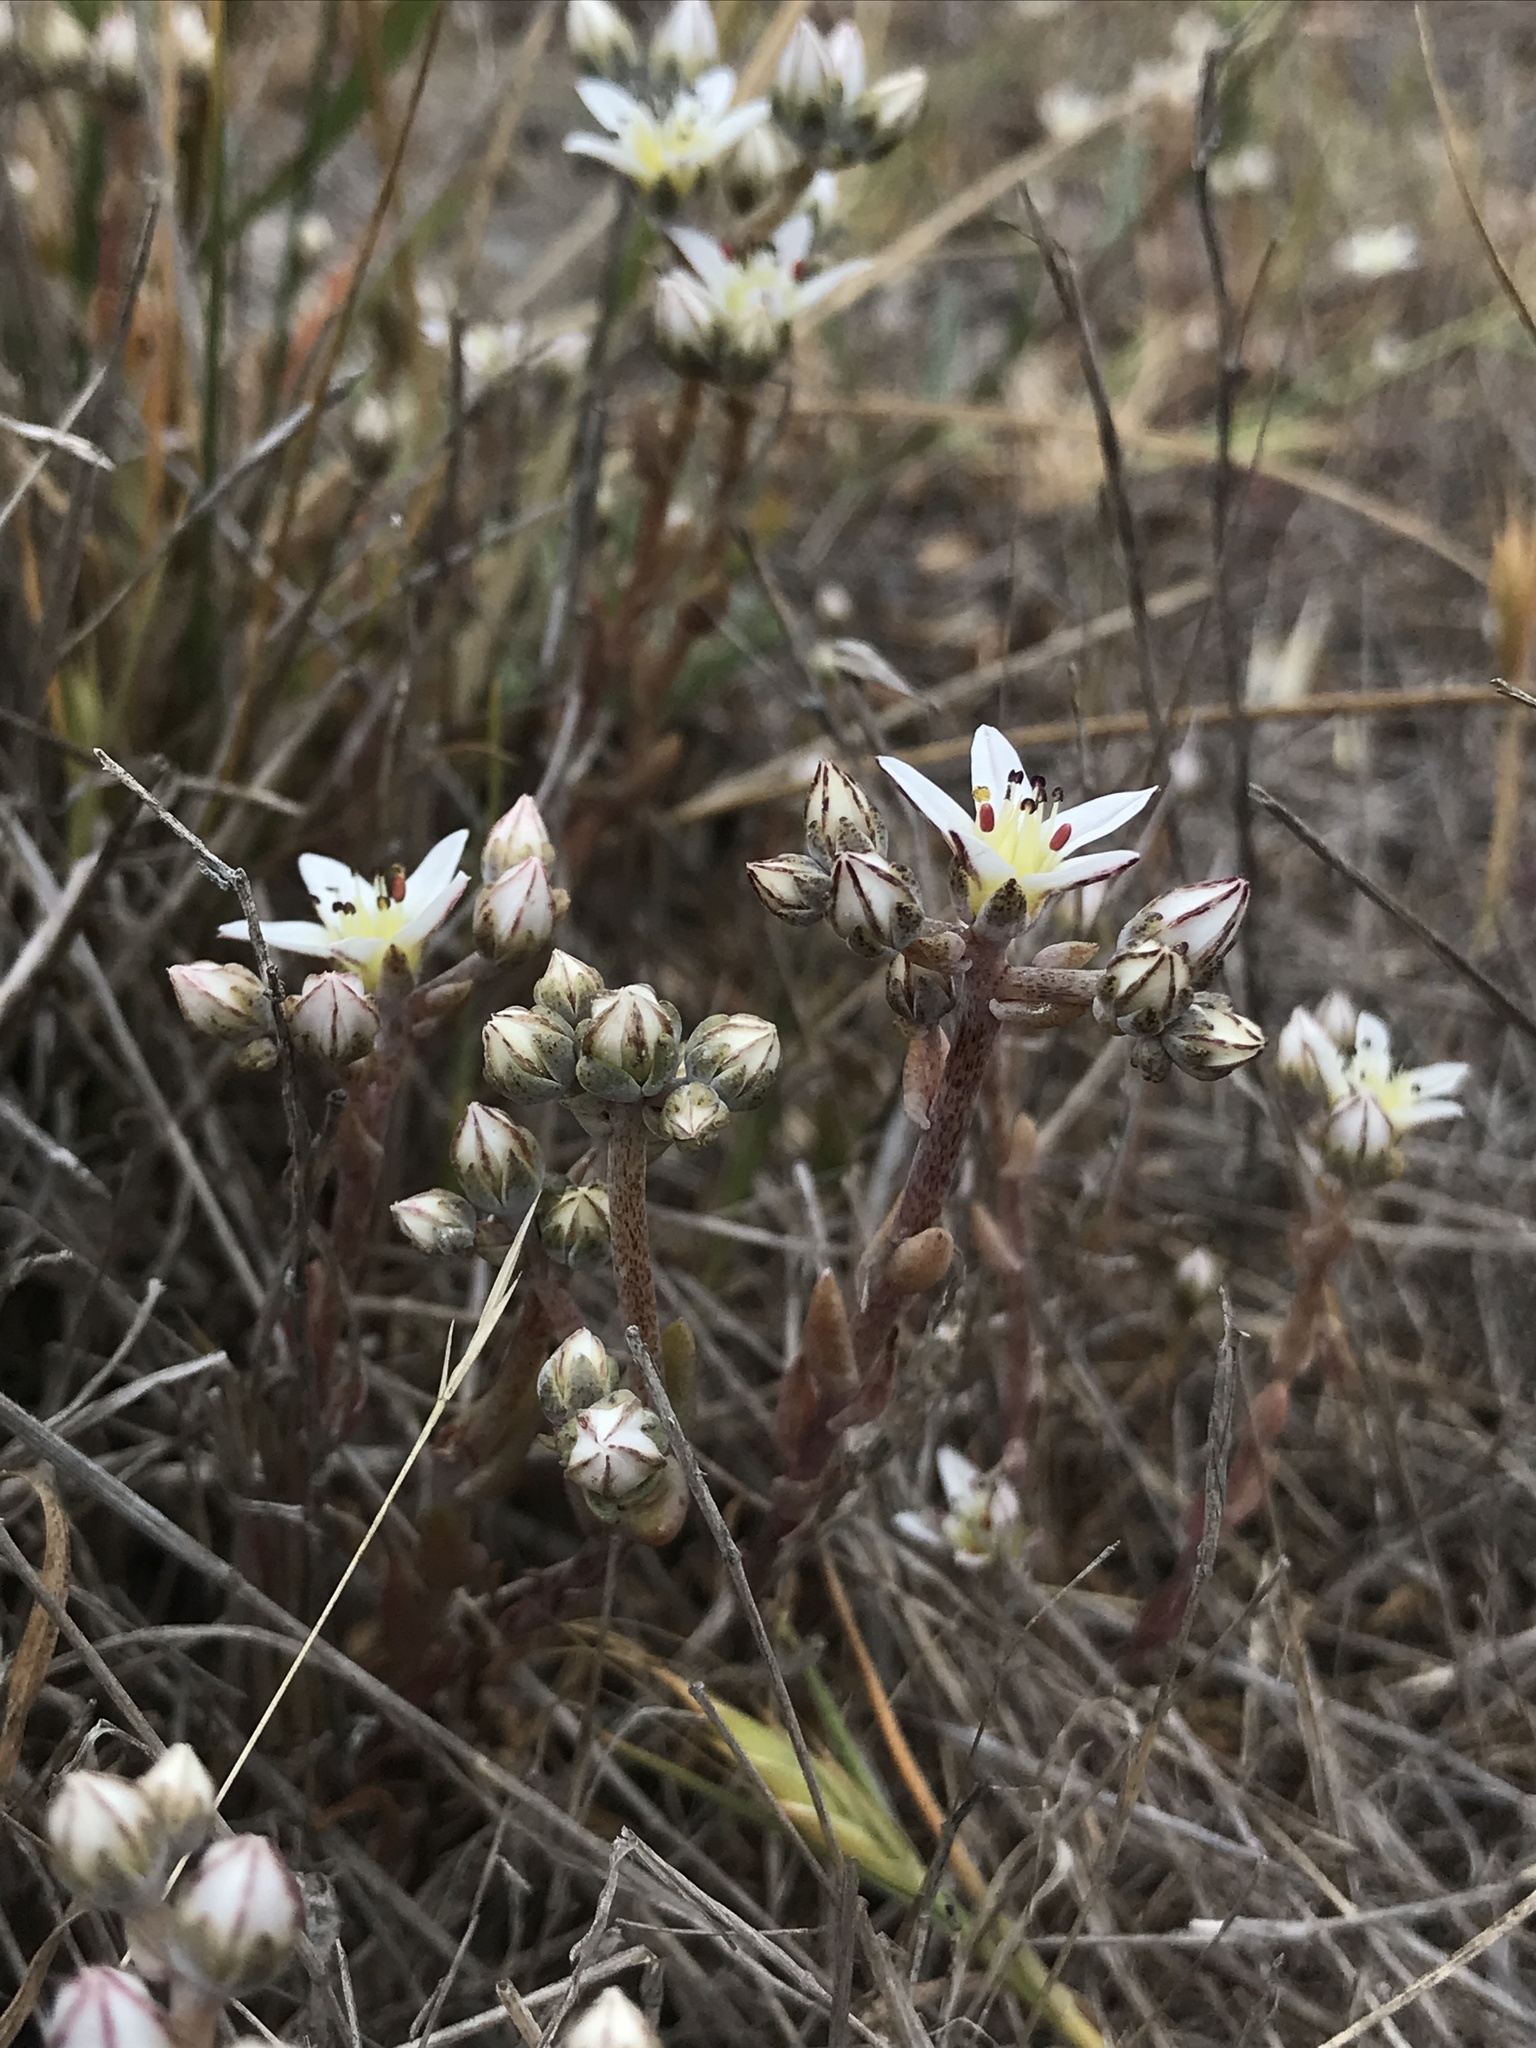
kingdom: Plantae
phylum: Tracheophyta
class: Magnoliopsida
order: Saxifragales
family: Crassulaceae
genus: Dudleya
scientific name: Dudleya blochmaniae
